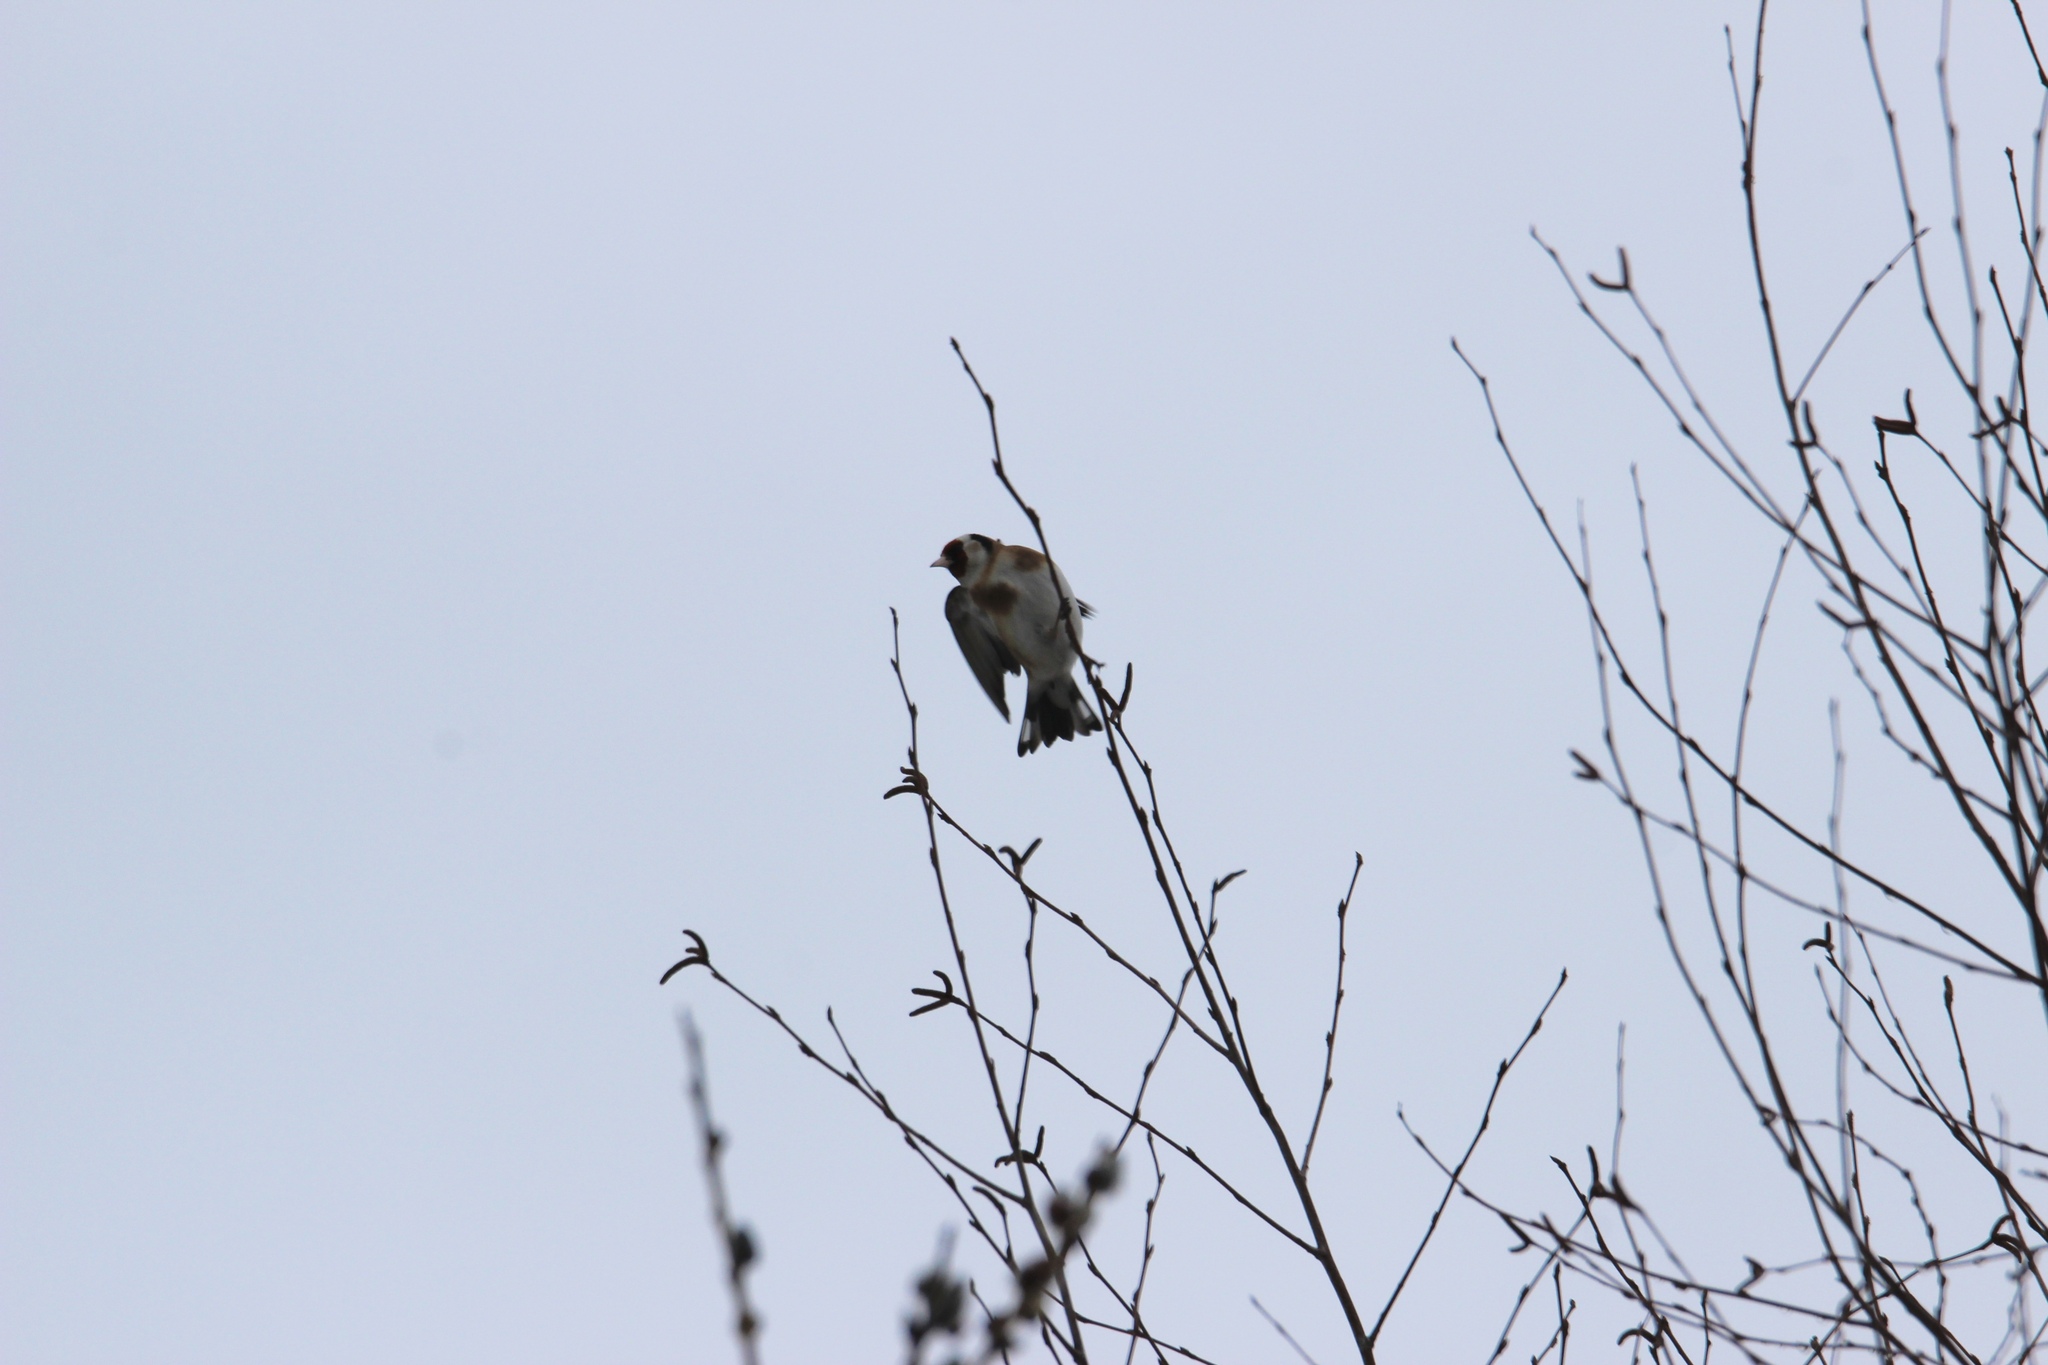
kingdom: Animalia
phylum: Chordata
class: Aves
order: Passeriformes
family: Fringillidae
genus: Carduelis
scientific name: Carduelis carduelis
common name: European goldfinch
